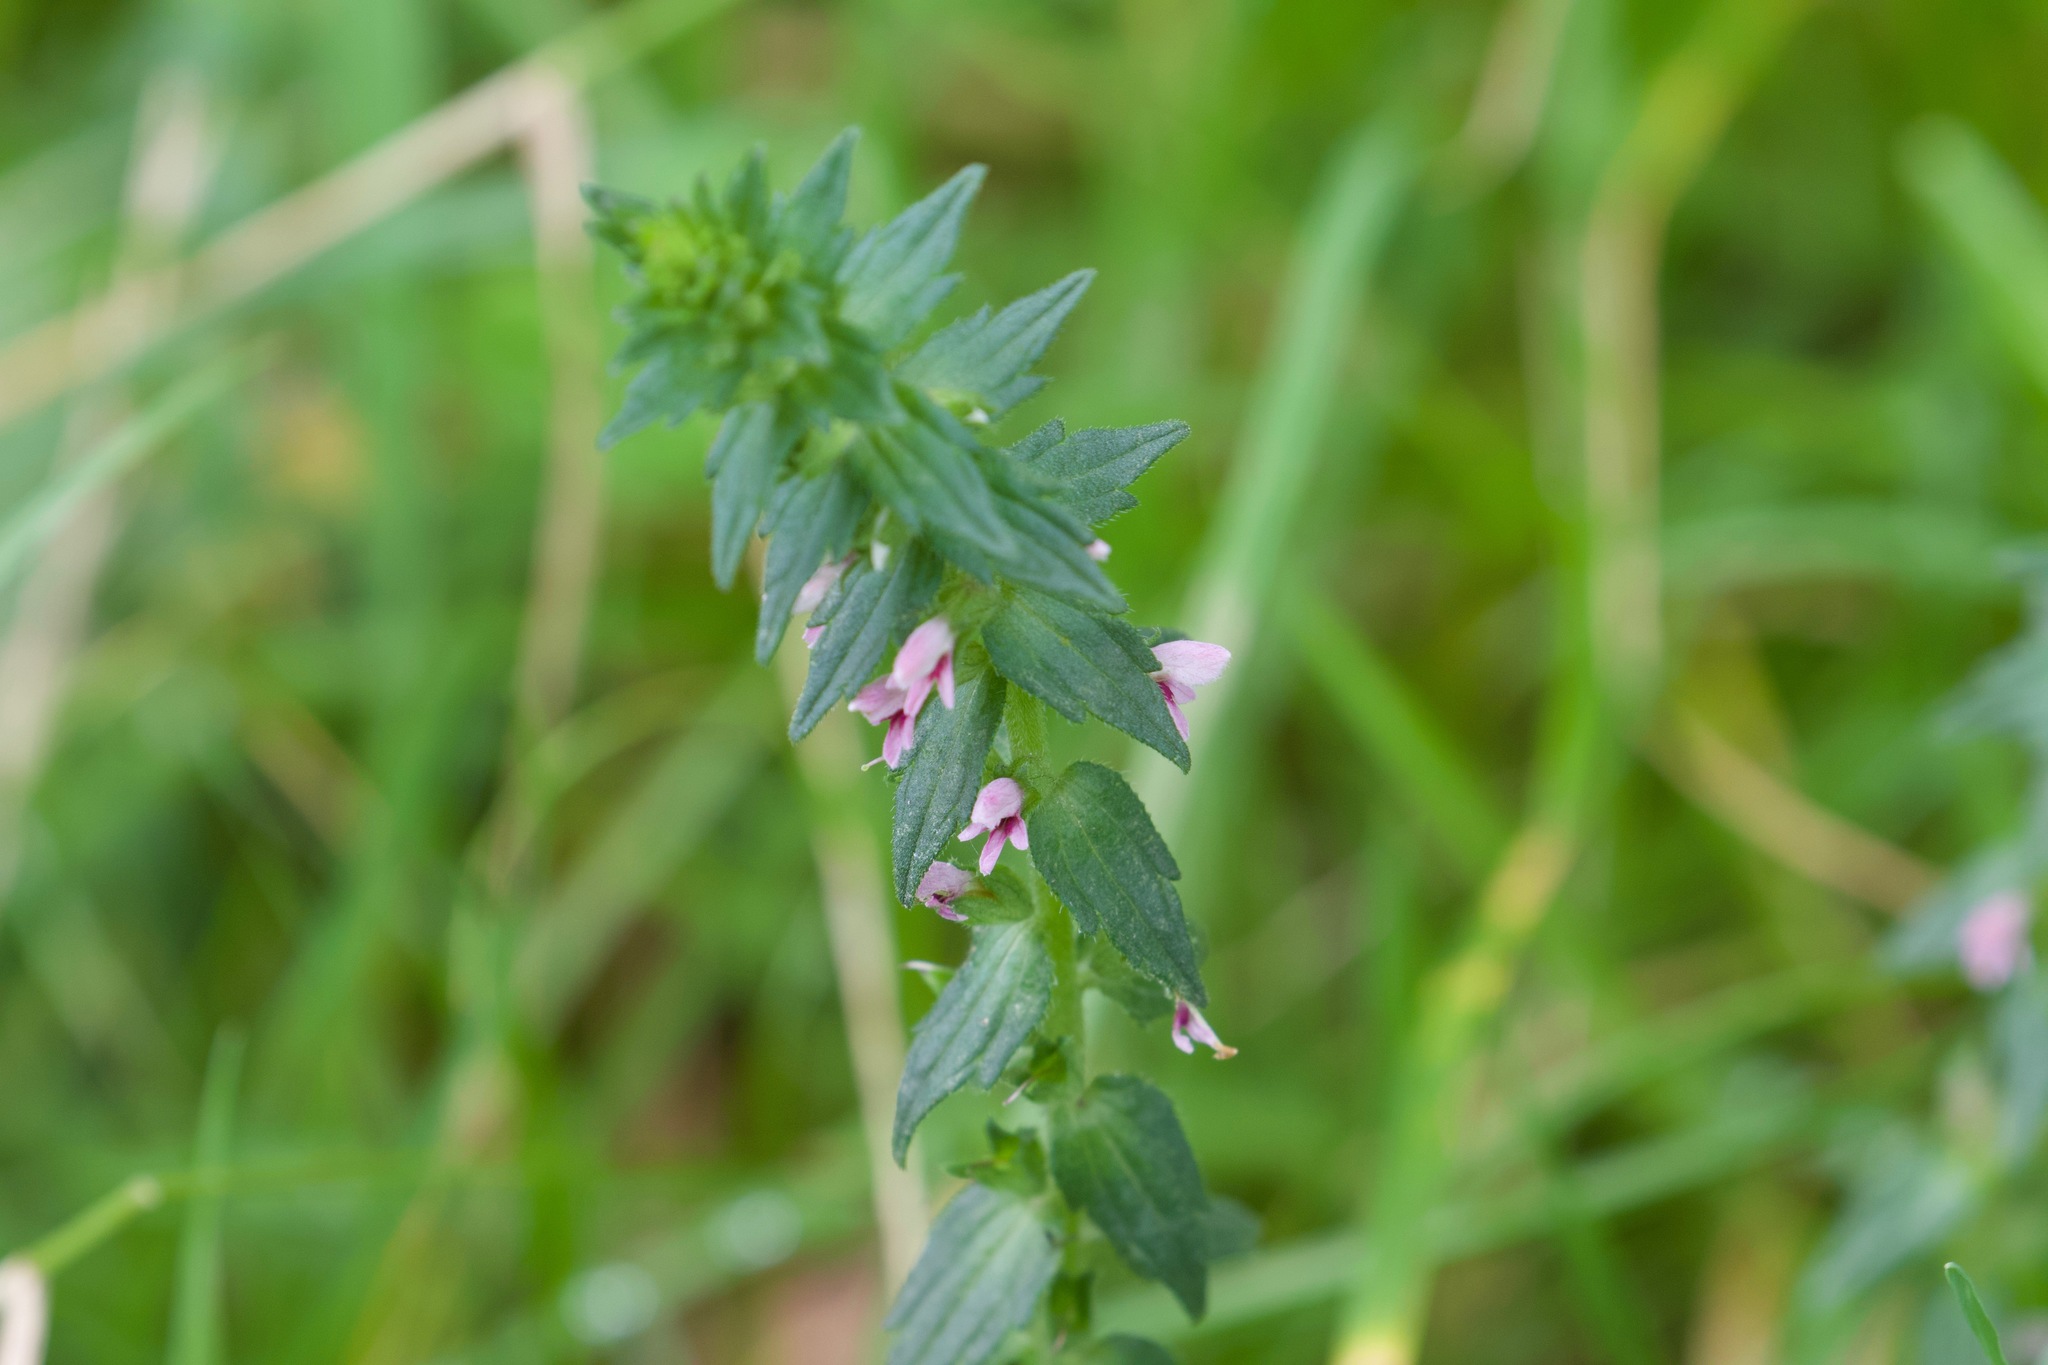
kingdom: Plantae
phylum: Tracheophyta
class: Magnoliopsida
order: Lamiales
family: Orobanchaceae
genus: Odontites
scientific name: Odontites vernus
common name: Red bartsia
